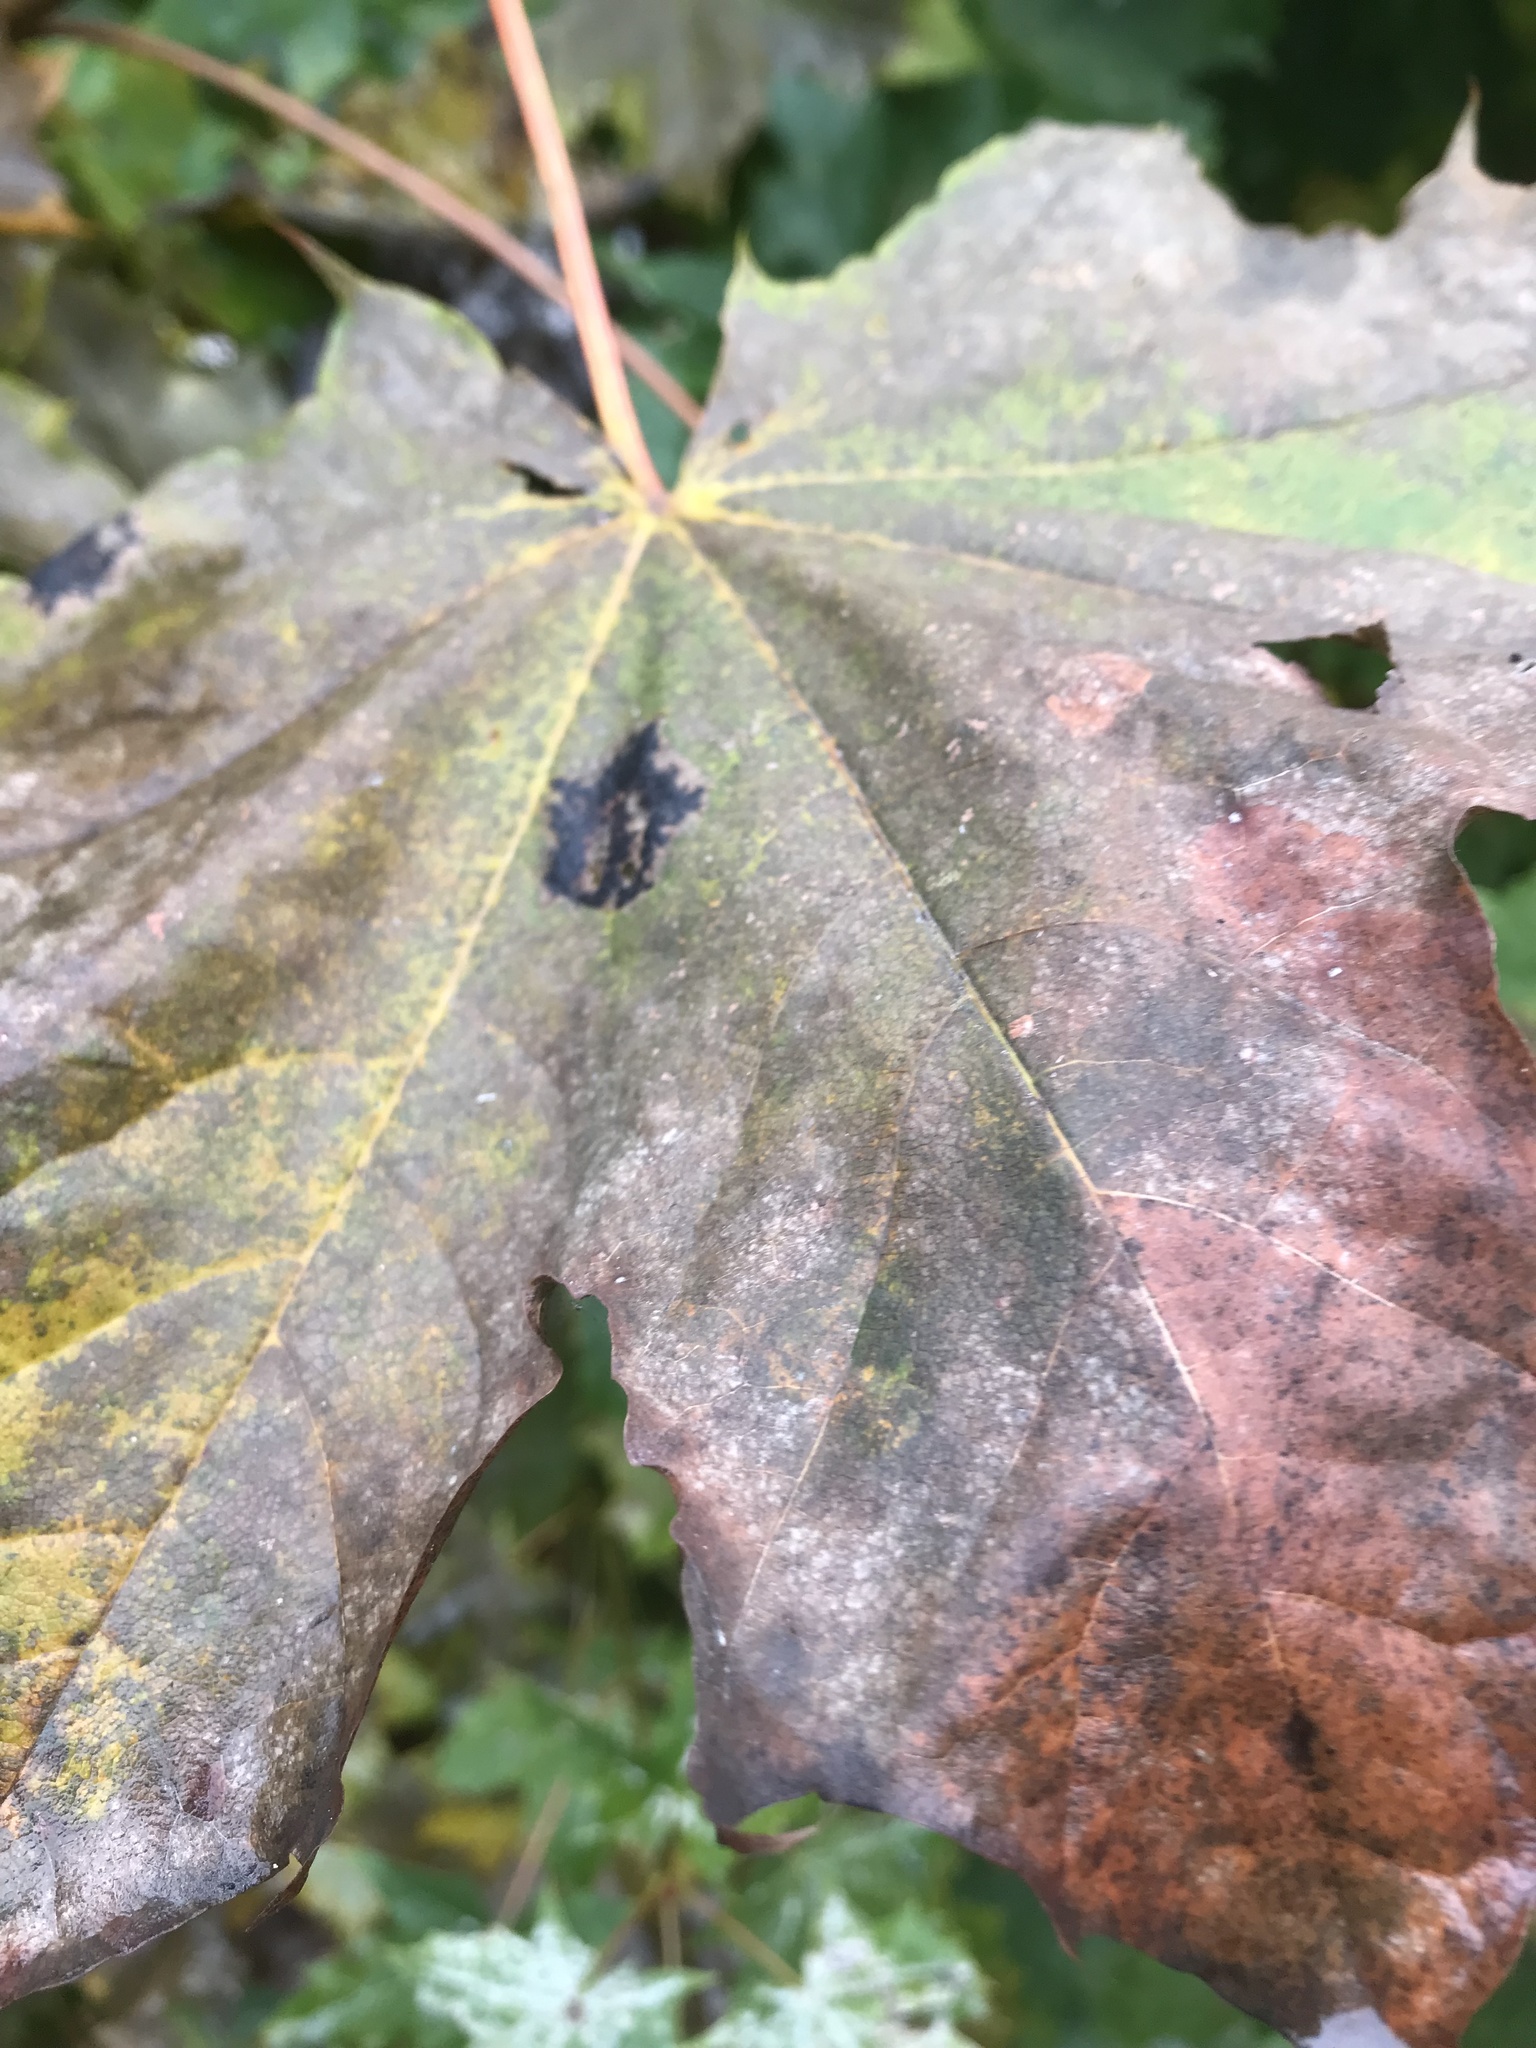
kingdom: Fungi
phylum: Ascomycota
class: Leotiomycetes
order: Rhytismatales
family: Rhytismataceae
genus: Rhytisma
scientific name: Rhytisma acerinum
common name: European tar spot
